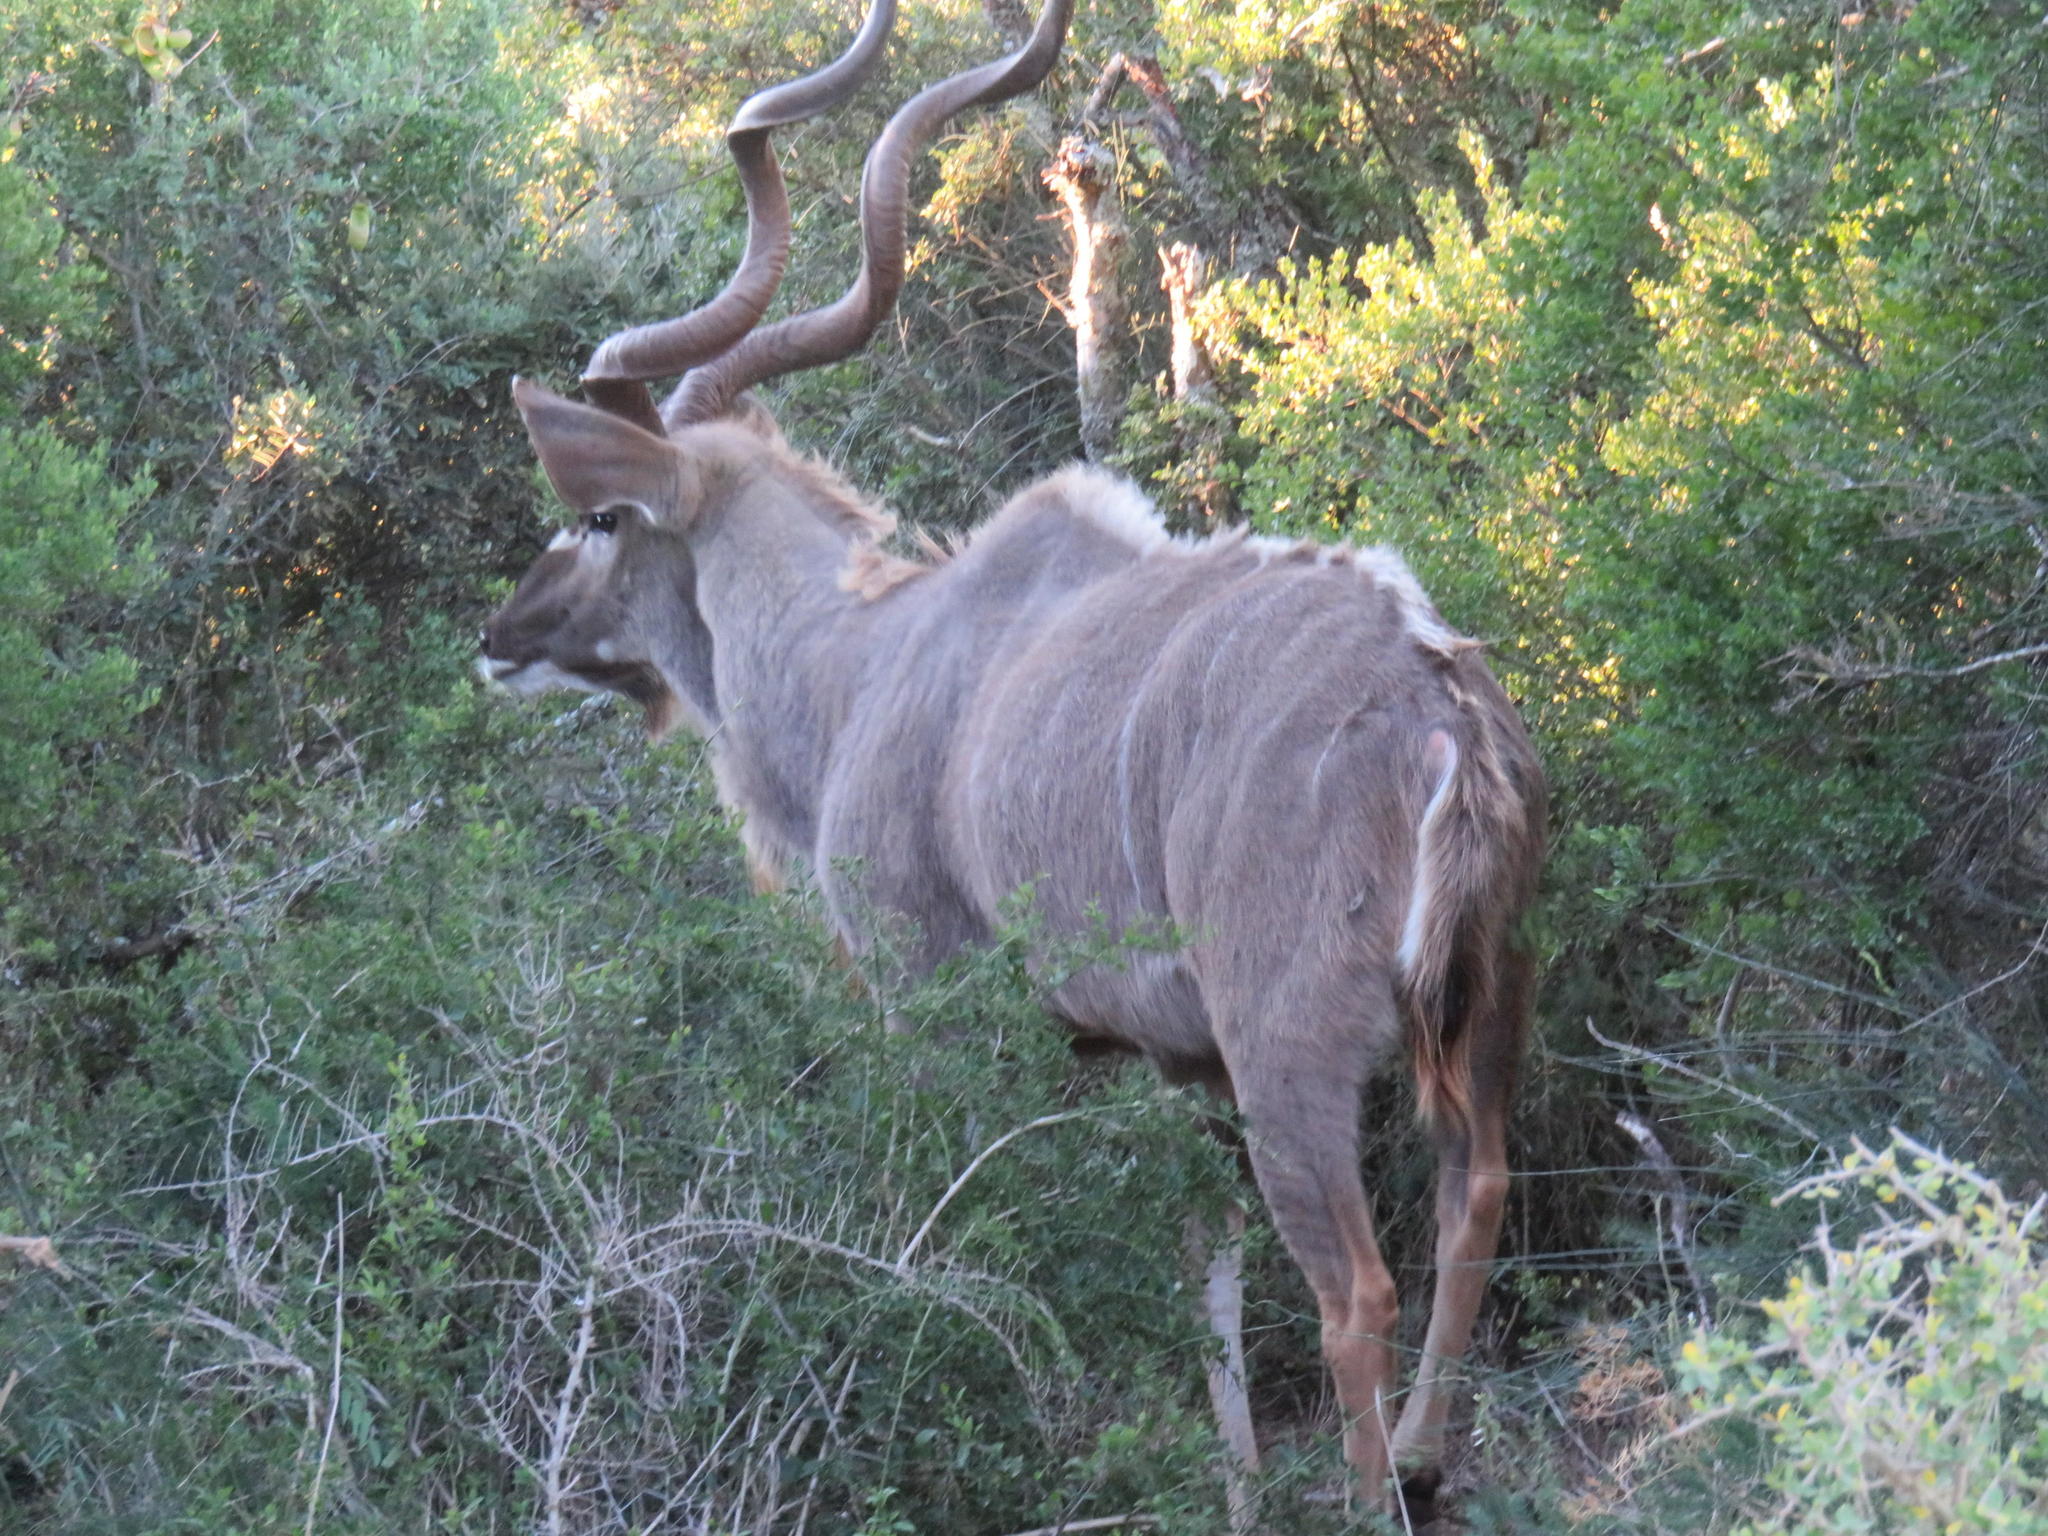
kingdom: Animalia
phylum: Chordata
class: Mammalia
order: Artiodactyla
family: Bovidae
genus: Tragelaphus
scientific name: Tragelaphus strepsiceros
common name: Greater kudu
